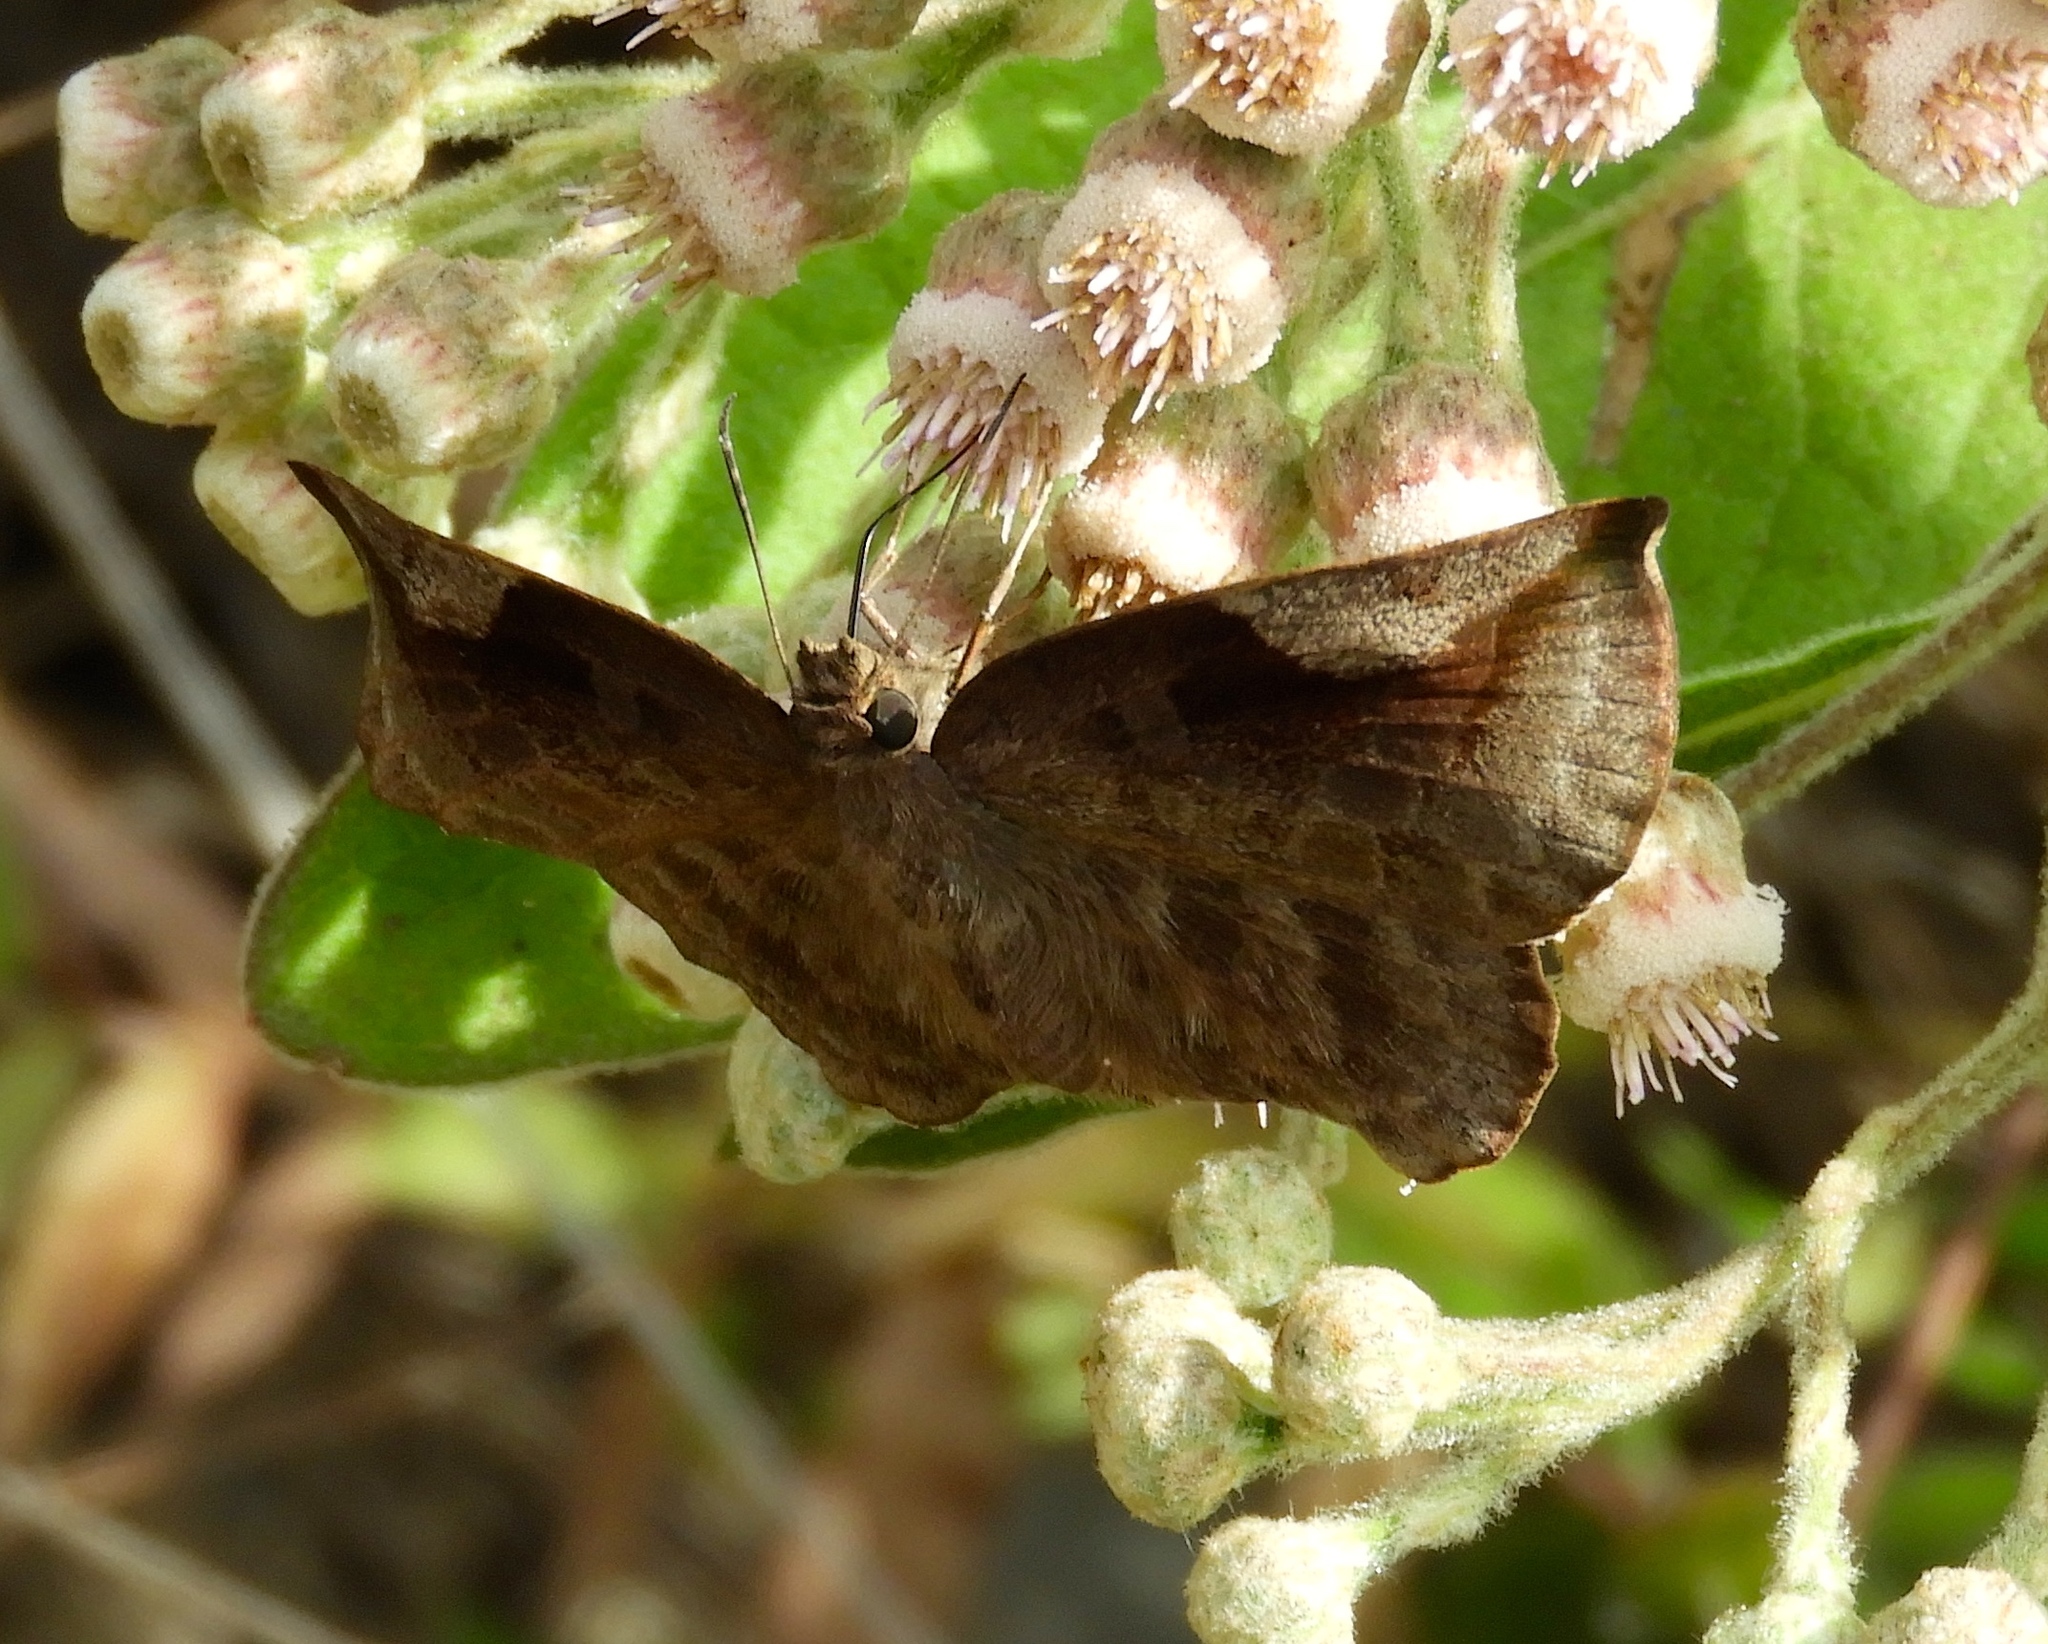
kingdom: Animalia
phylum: Arthropoda
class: Insecta
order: Lepidoptera
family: Hesperiidae
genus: Achlyodes
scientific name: Achlyodes thraso
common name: Sickle-winged skipper
